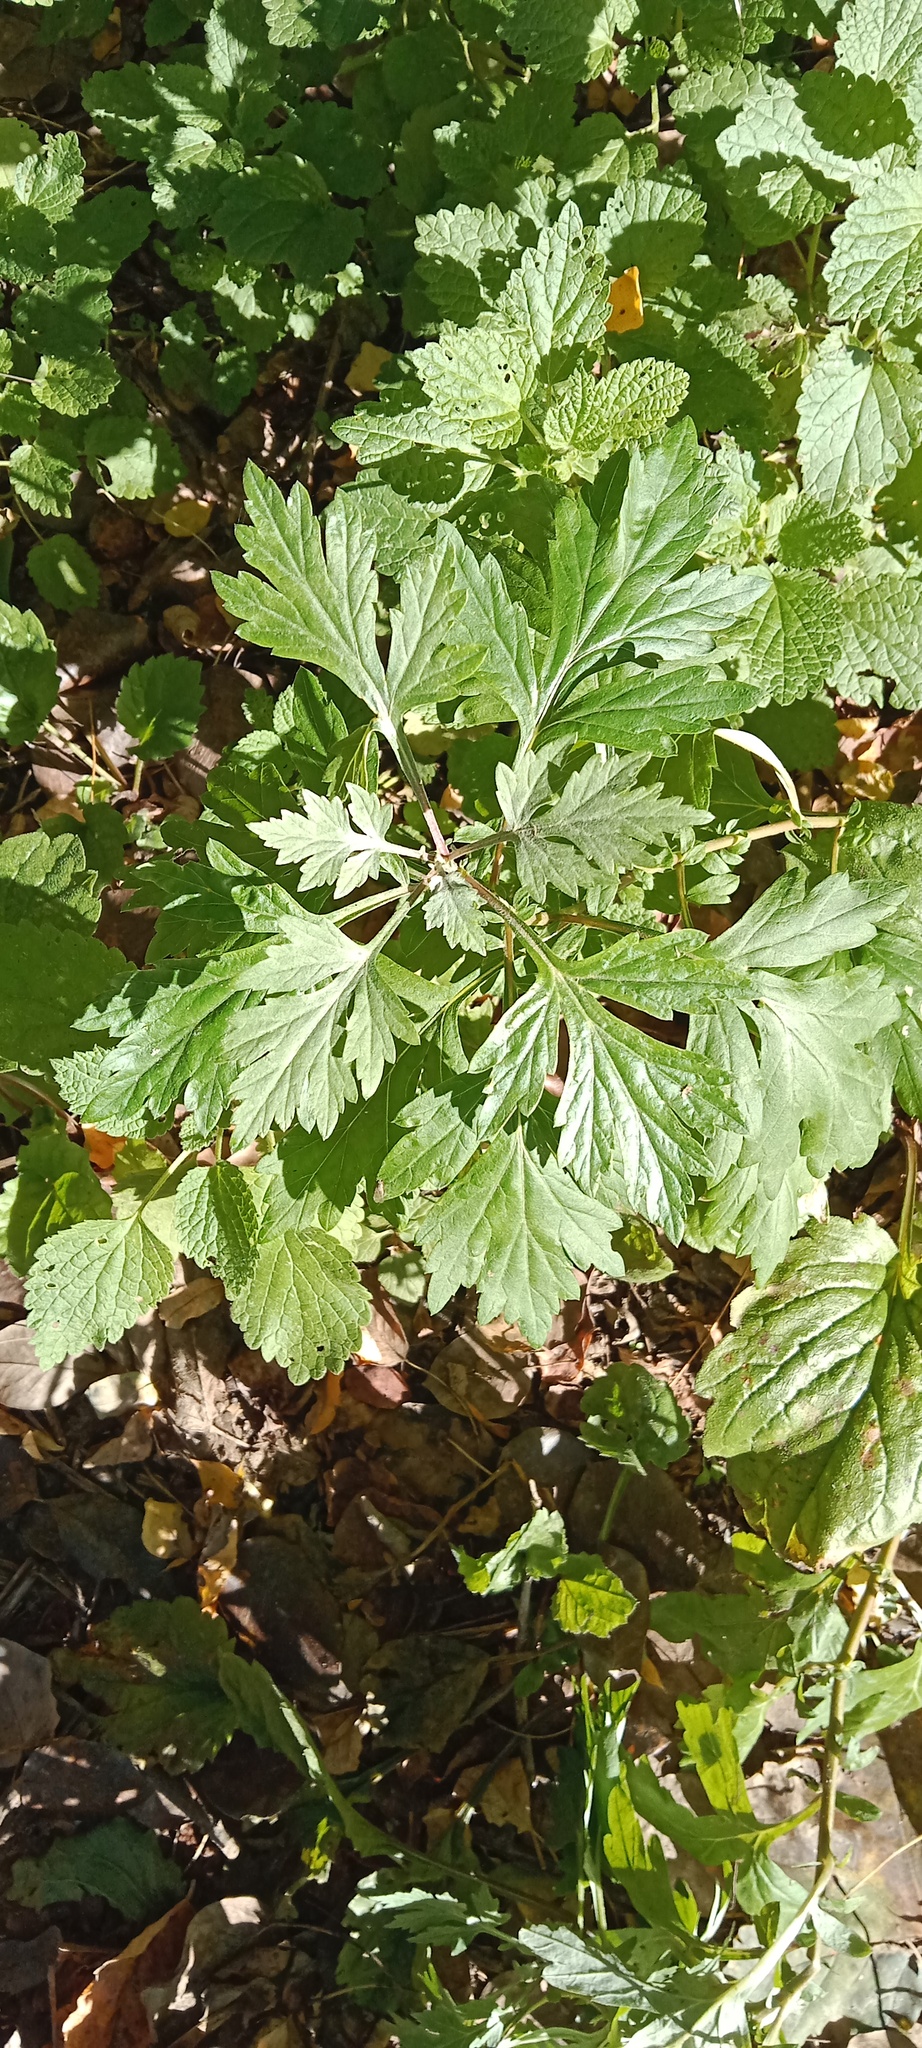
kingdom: Plantae
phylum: Tracheophyta
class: Magnoliopsida
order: Asterales
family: Asteraceae
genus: Artemisia
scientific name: Artemisia vulgaris
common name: Mugwort
